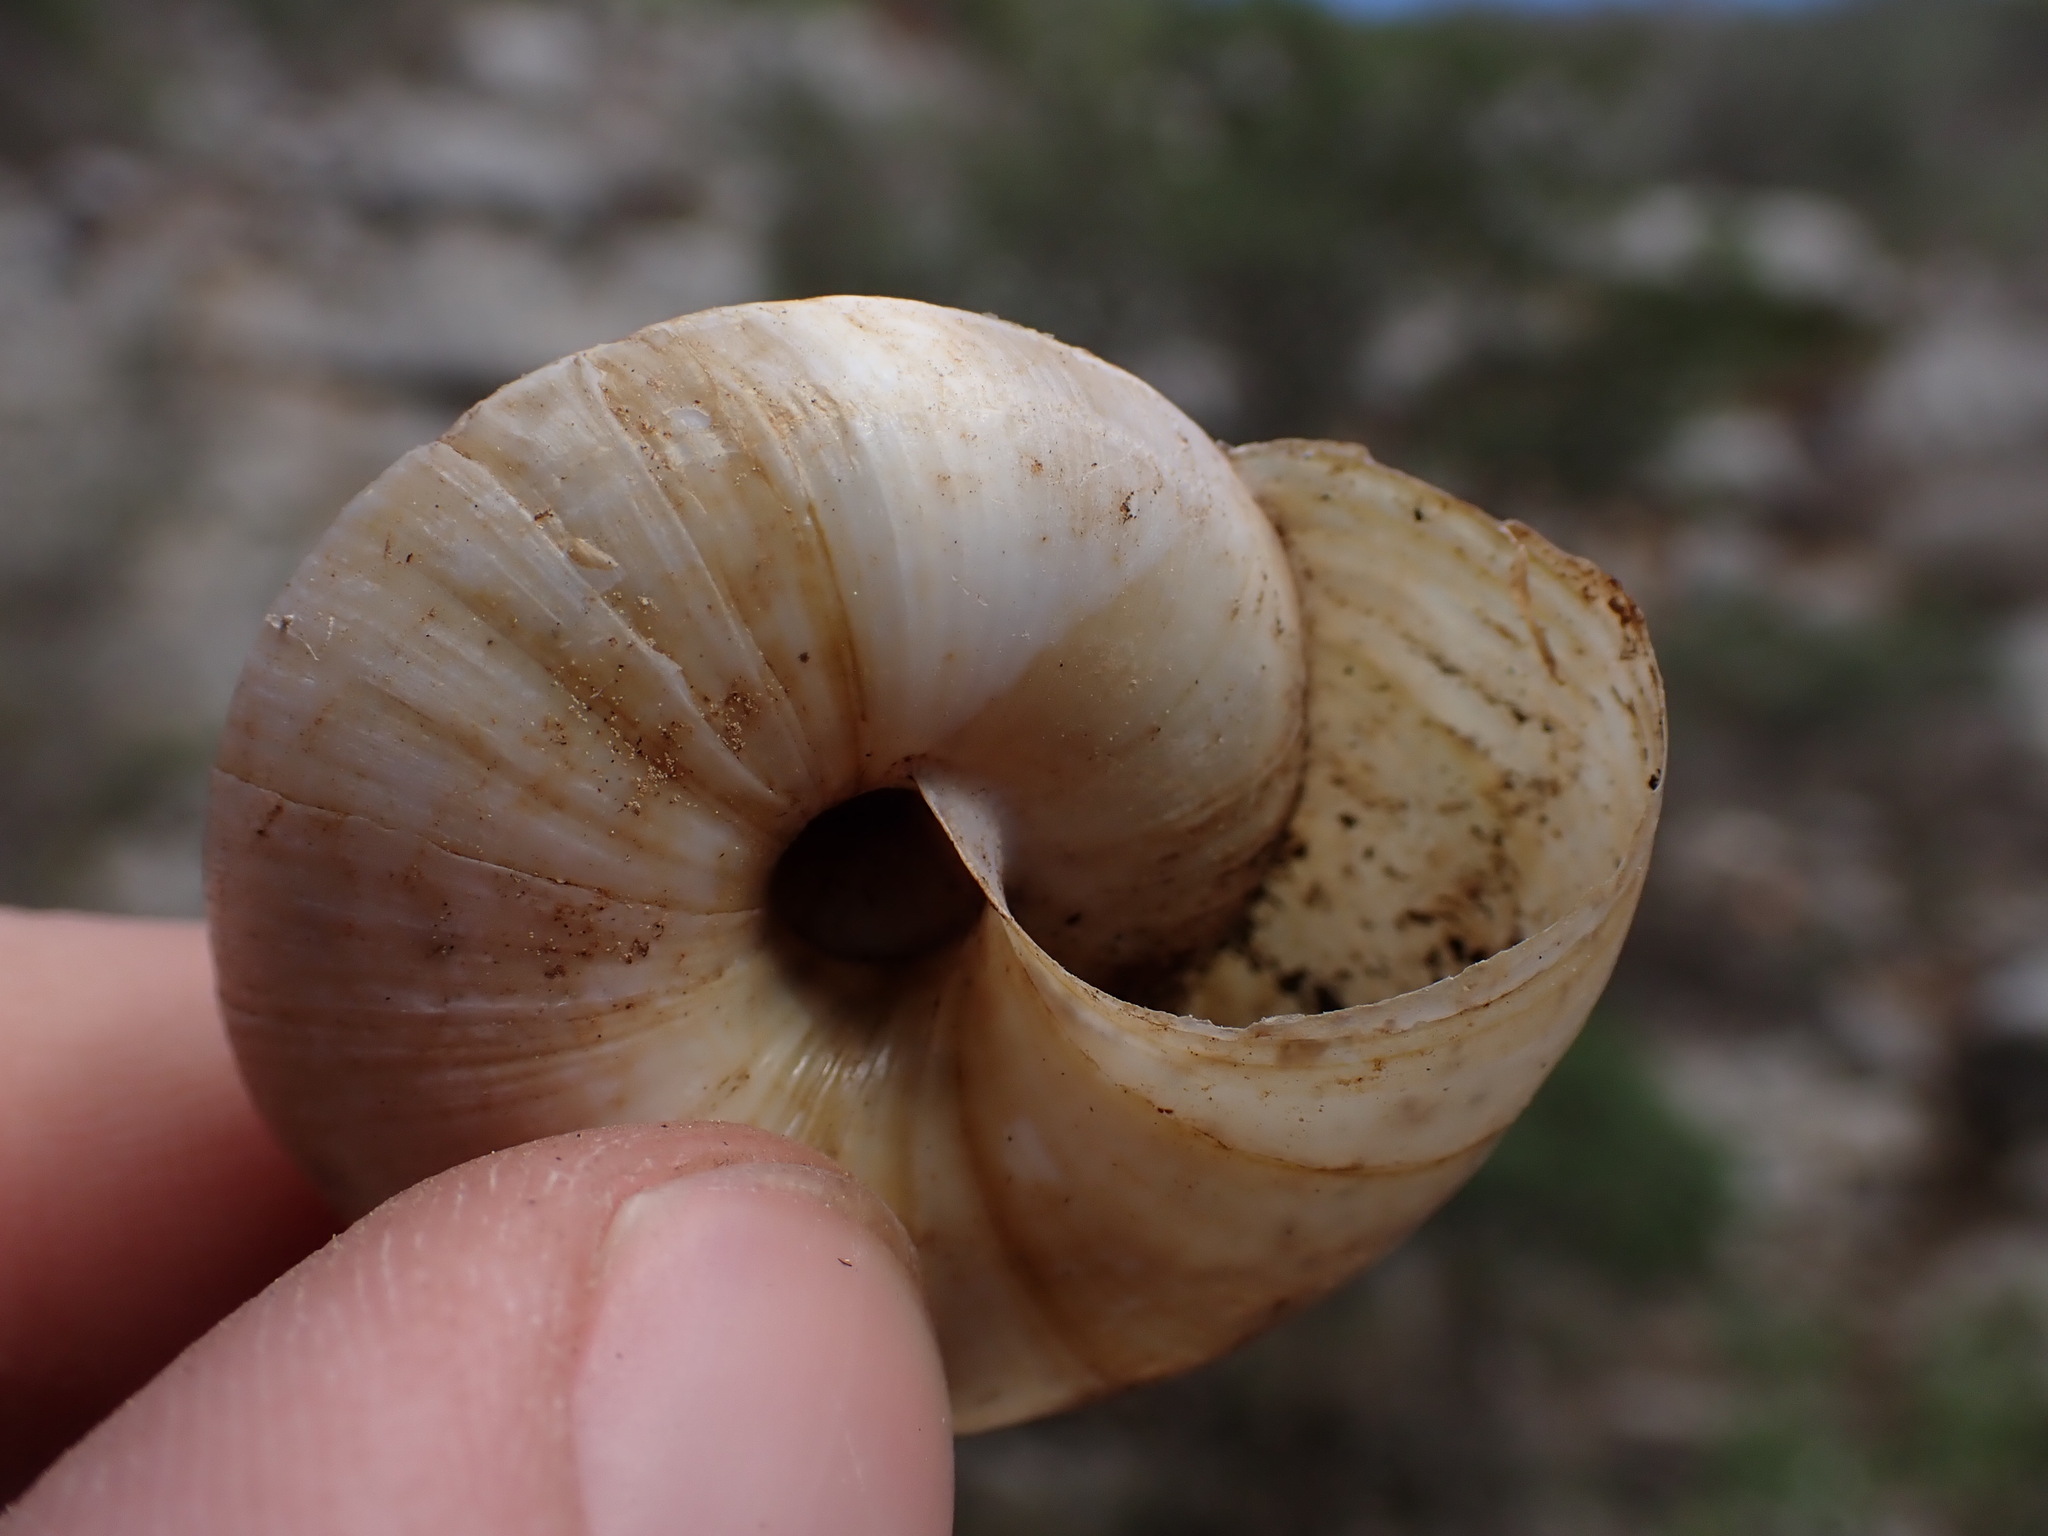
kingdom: Animalia
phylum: Mollusca
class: Gastropoda
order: Stylommatophora
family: Zonitidae
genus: Zonites
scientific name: Zonites algirus
